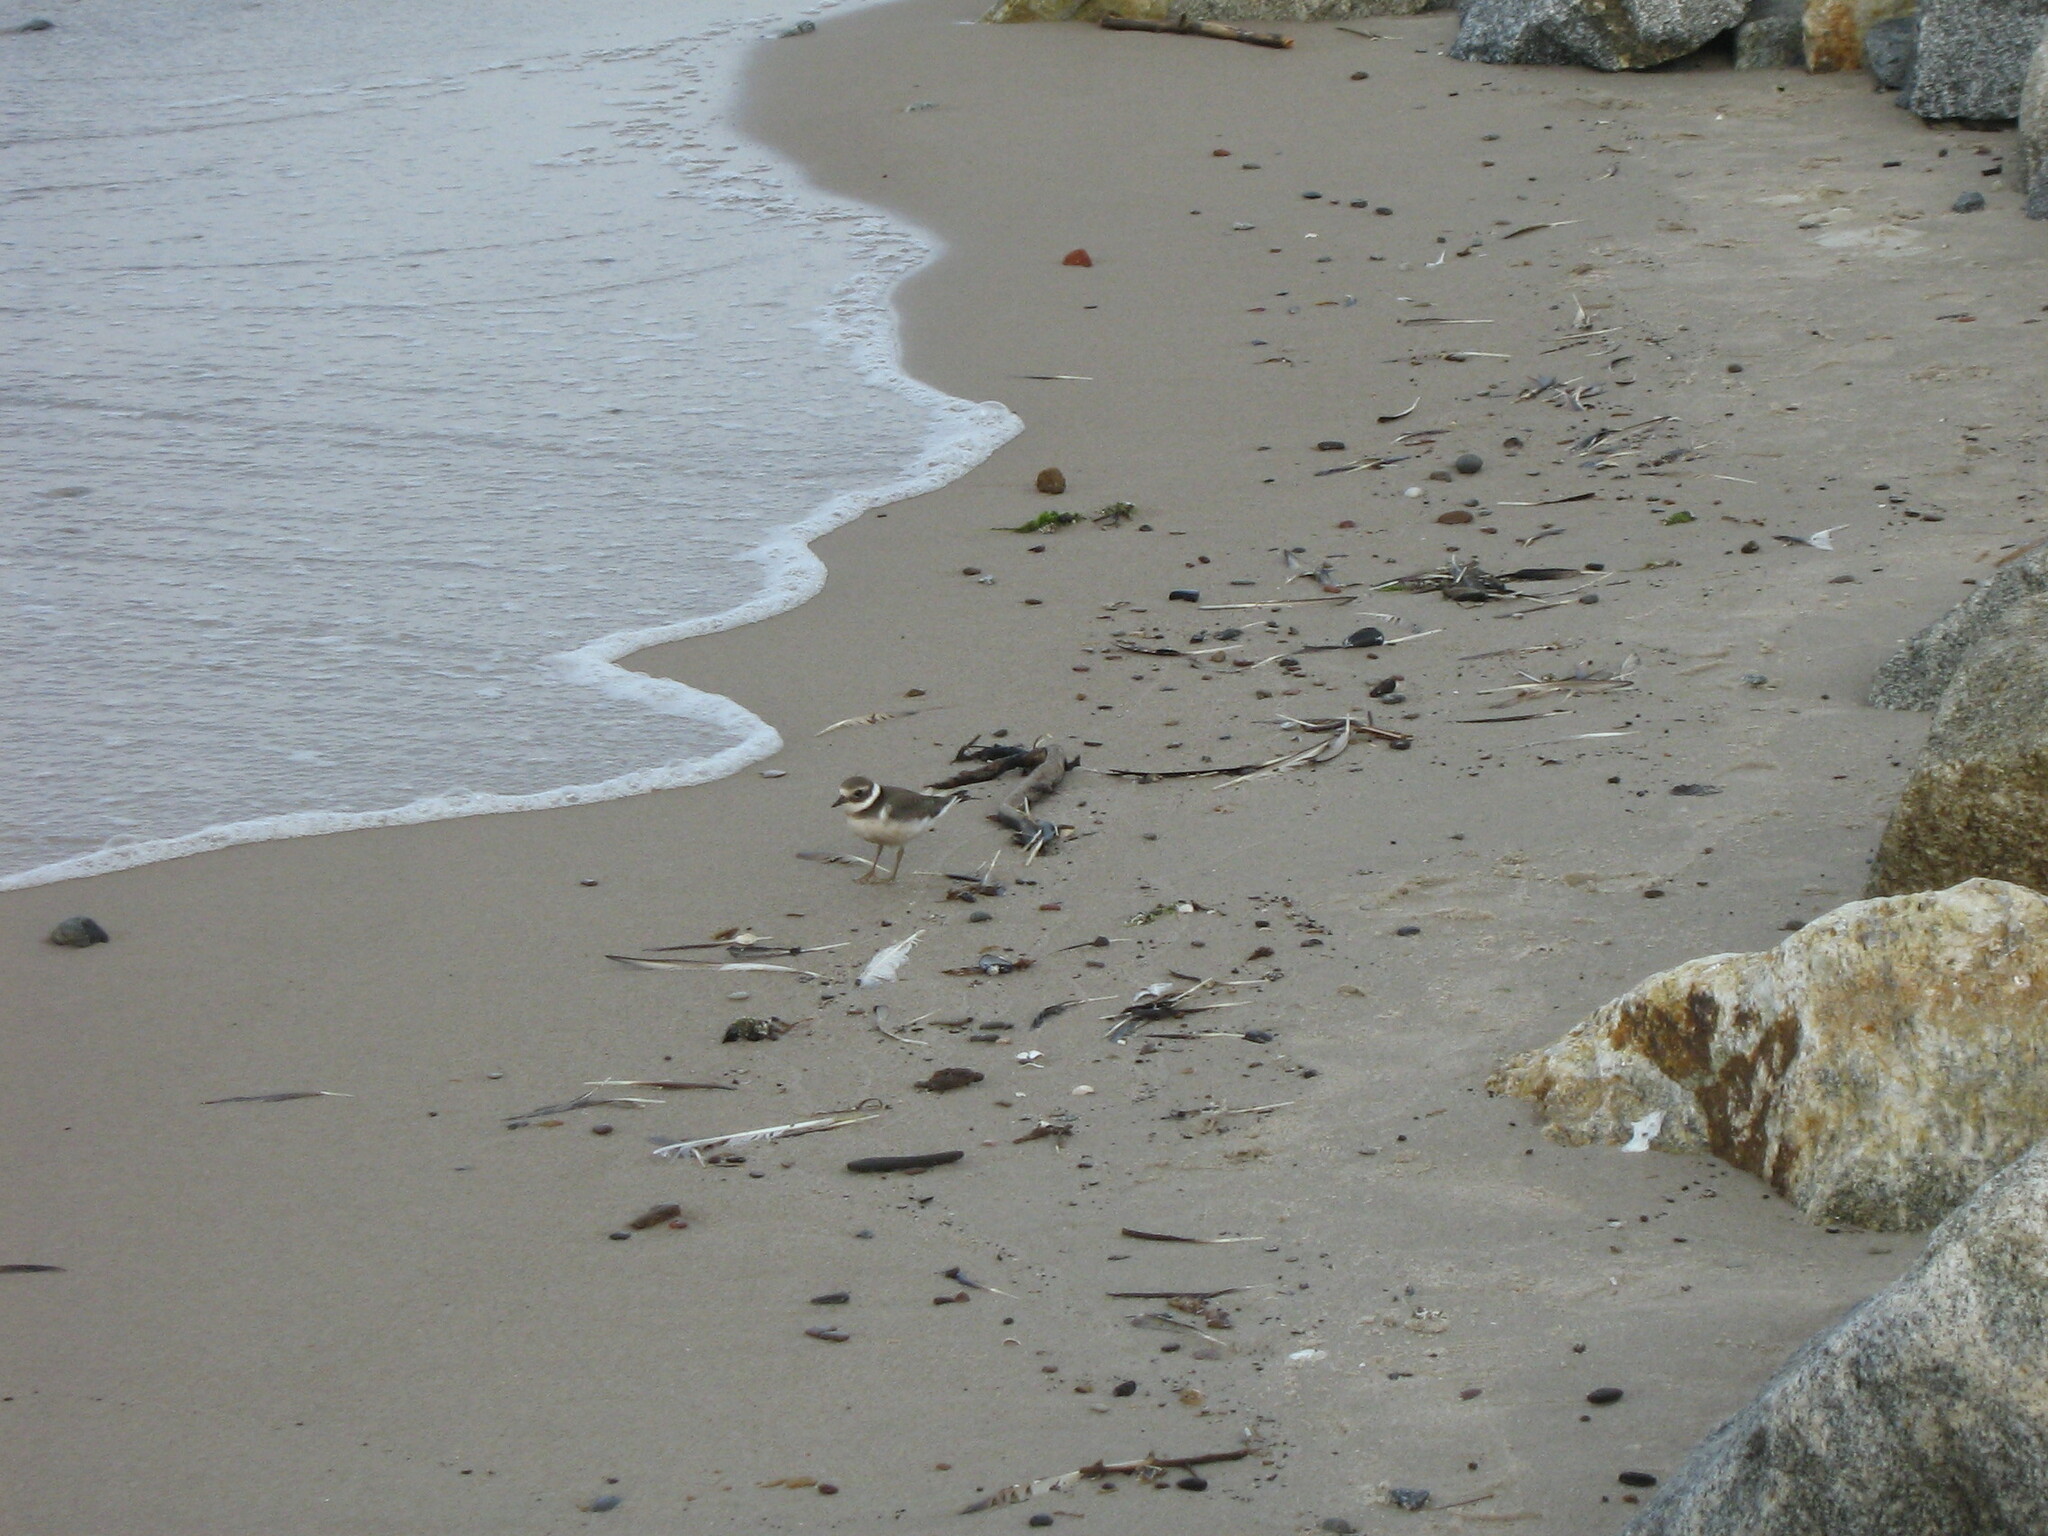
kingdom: Animalia
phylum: Chordata
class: Aves
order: Charadriiformes
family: Charadriidae
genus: Charadrius
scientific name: Charadrius hiaticula
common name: Common ringed plover
